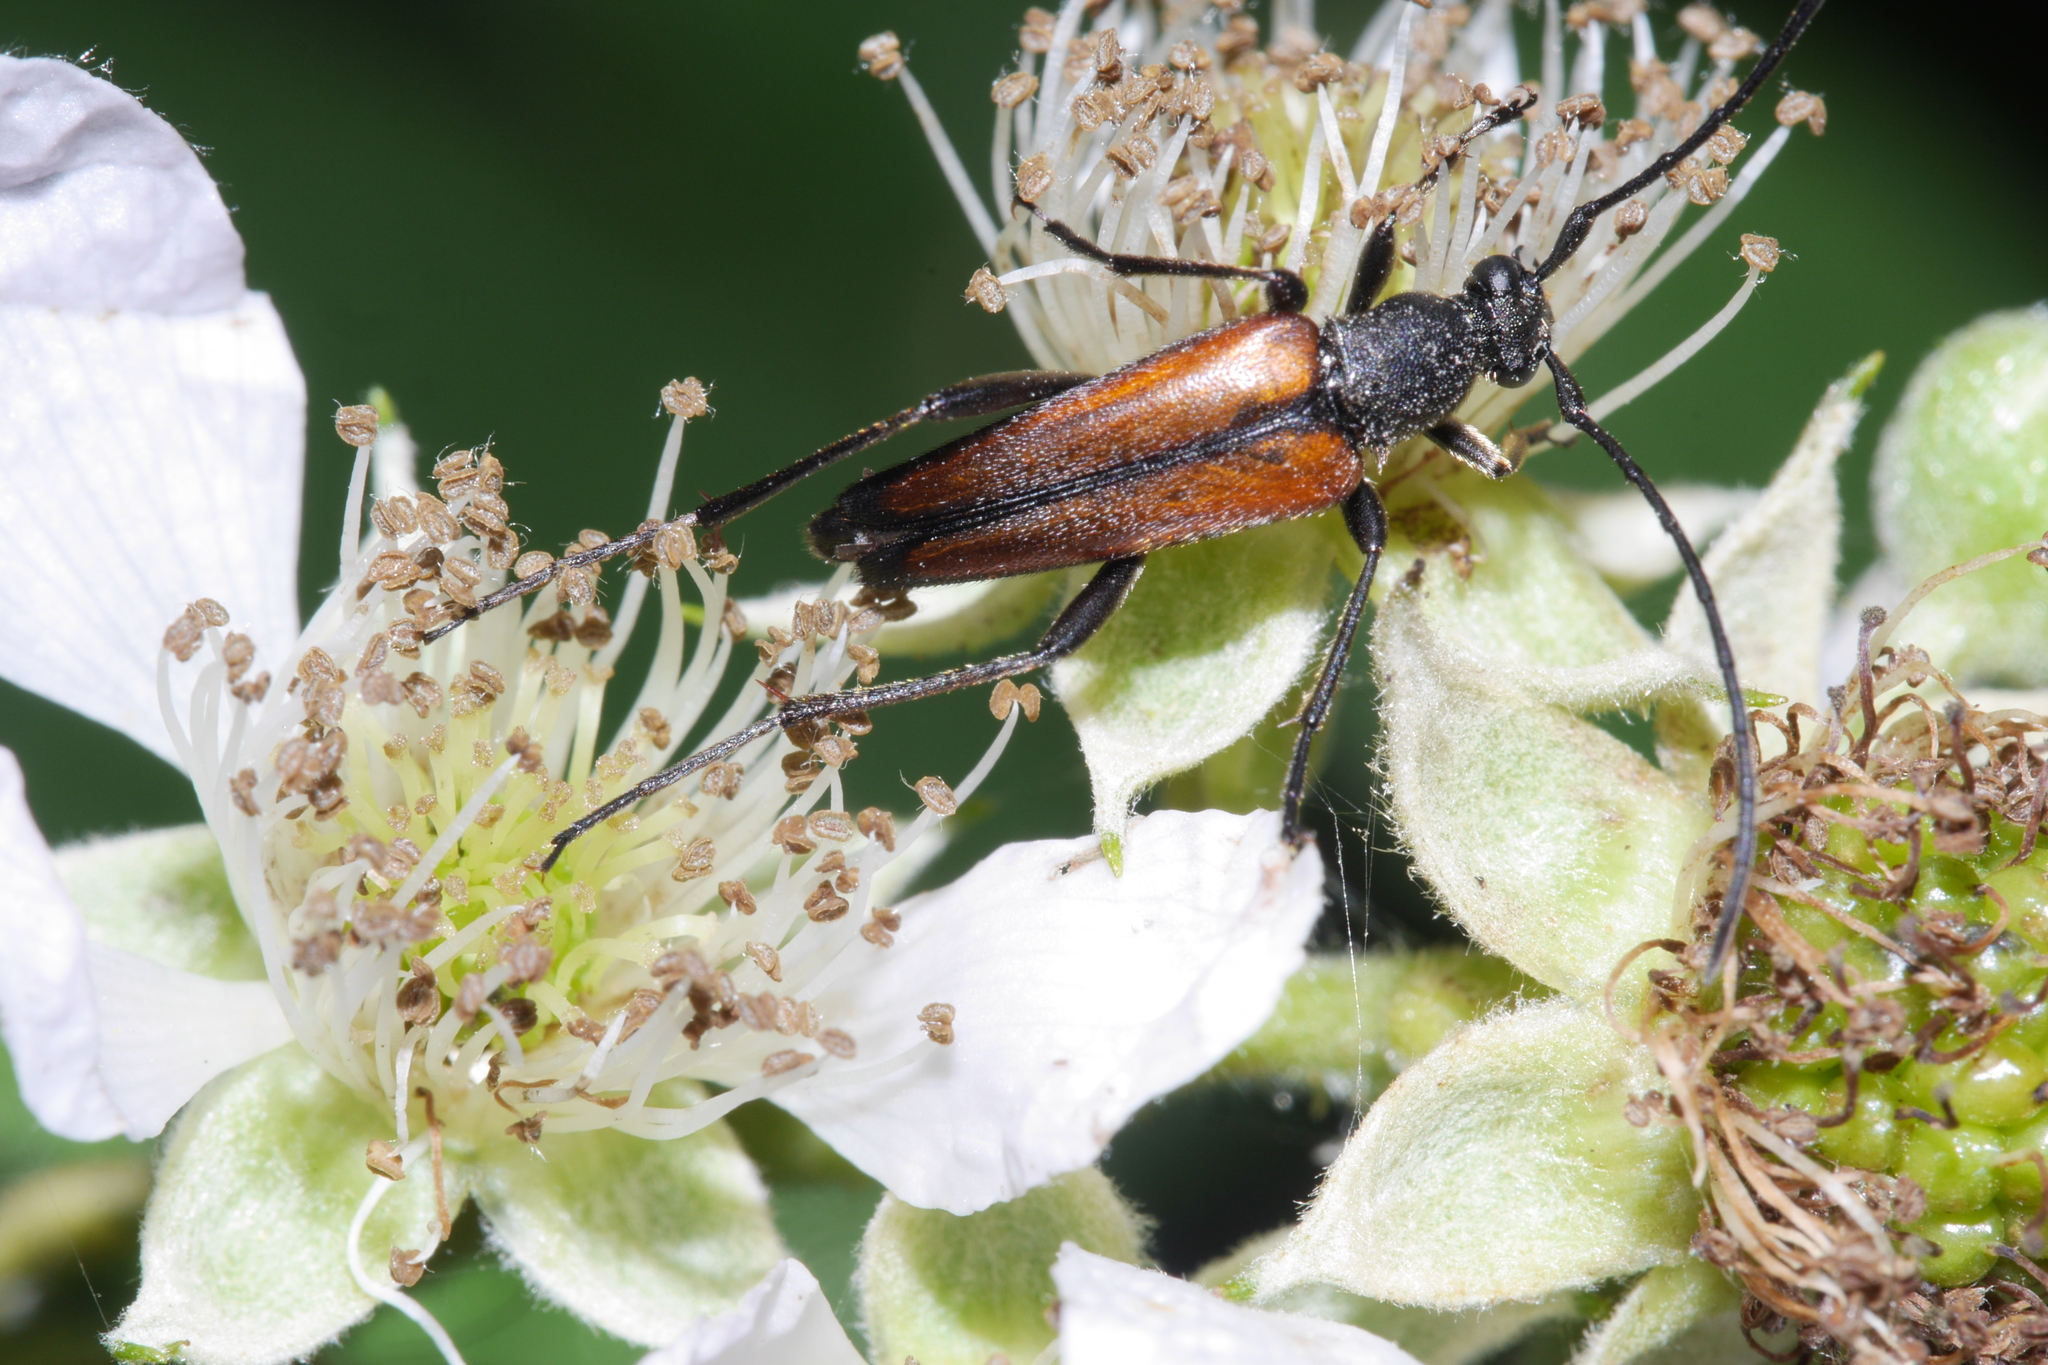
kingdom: Animalia
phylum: Arthropoda
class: Insecta
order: Coleoptera
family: Cerambycidae
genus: Stenurella
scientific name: Stenurella melanura
